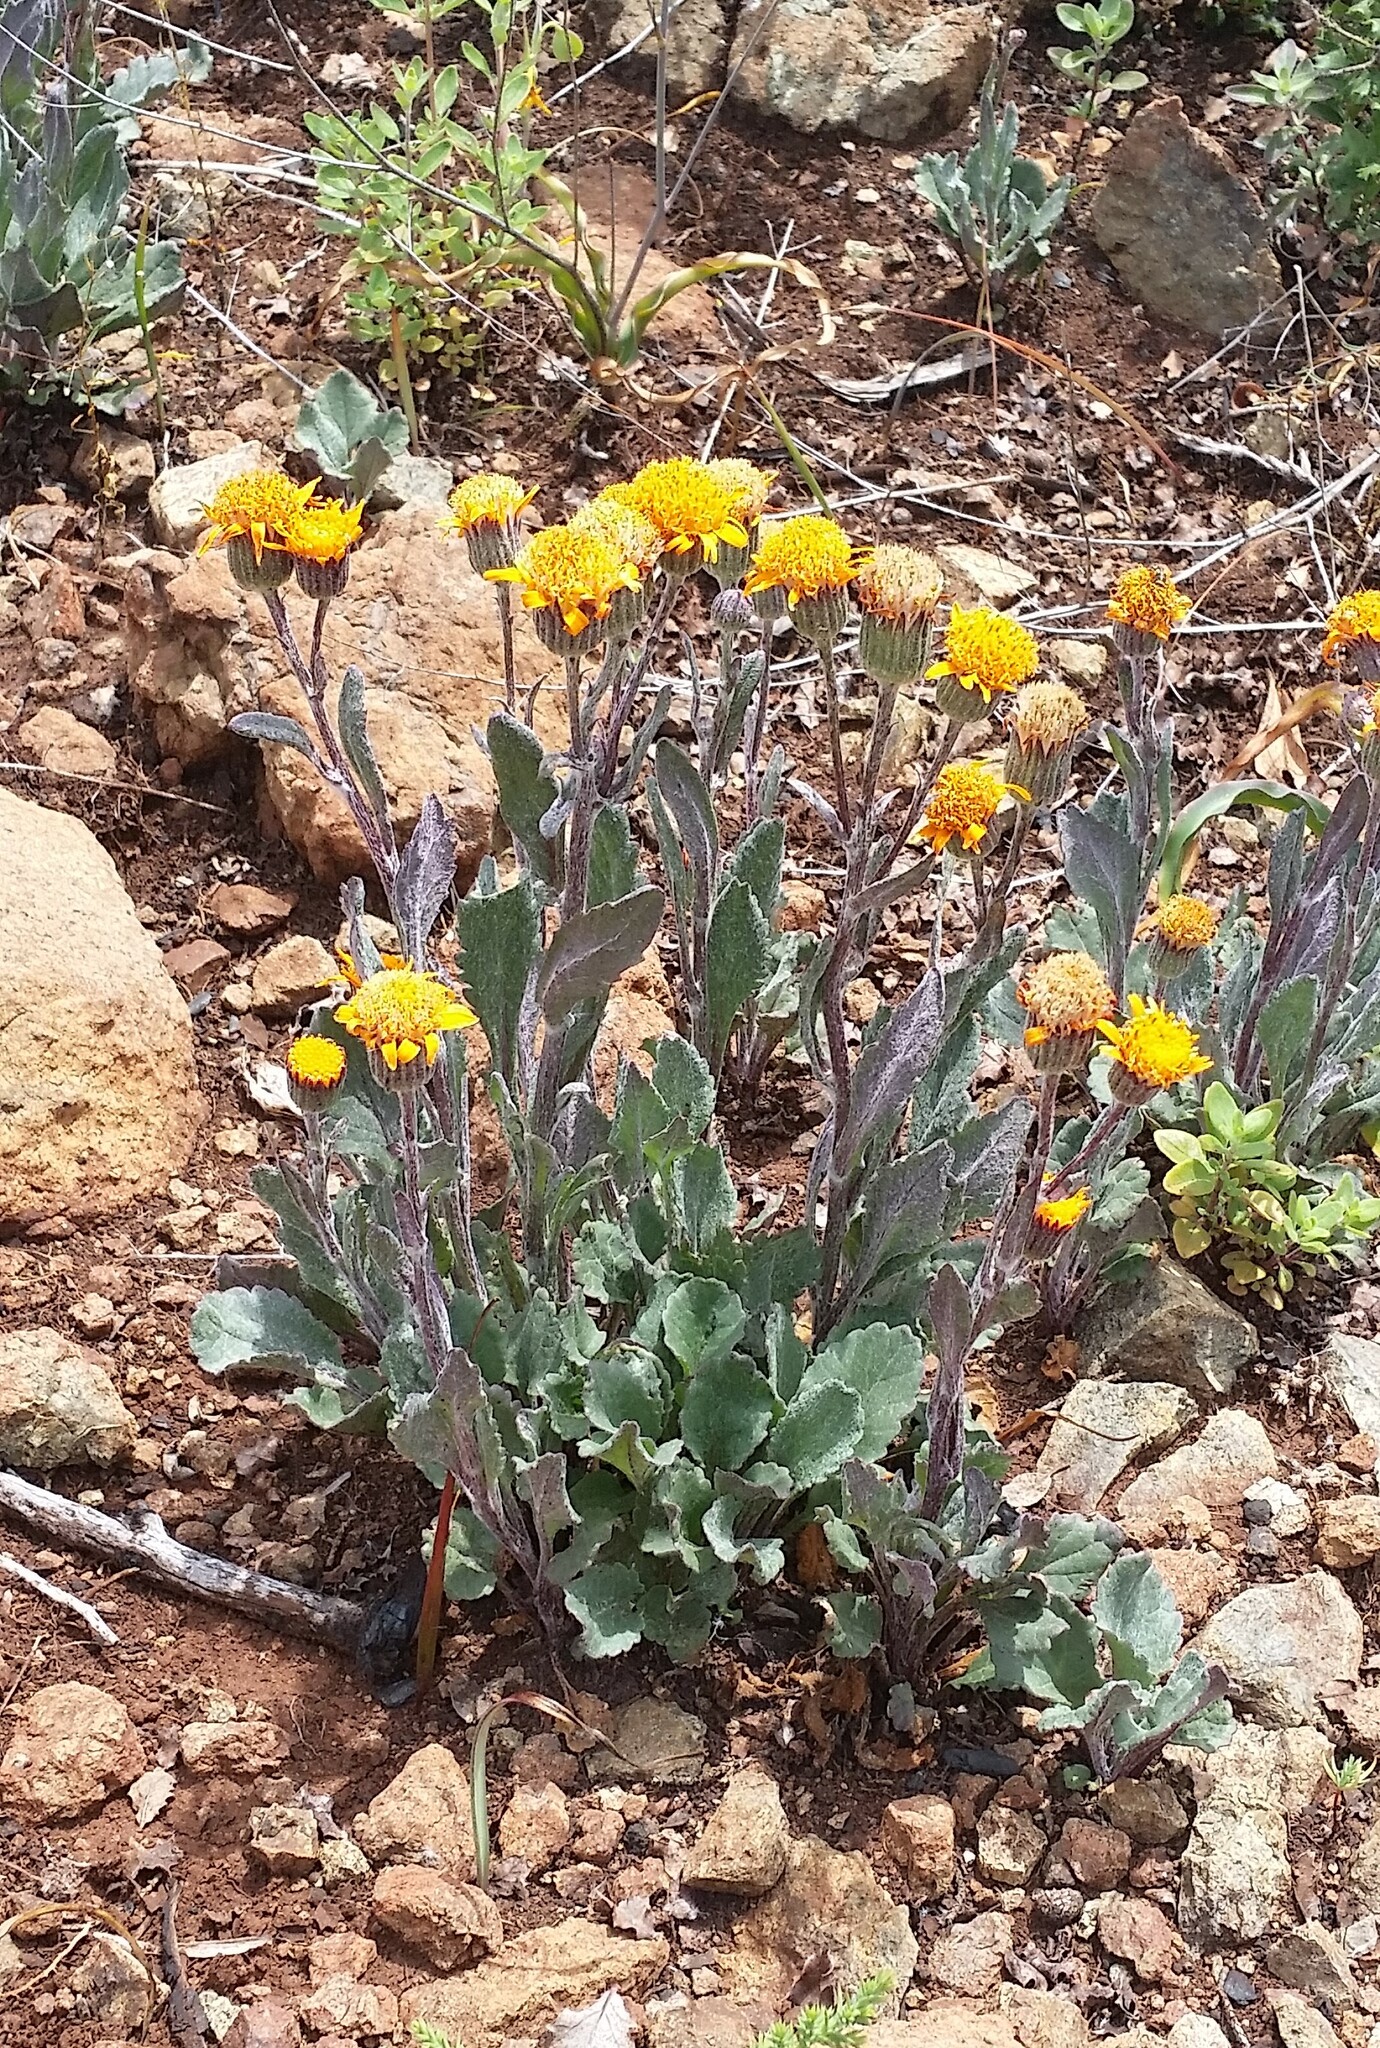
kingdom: Plantae
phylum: Tracheophyta
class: Magnoliopsida
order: Asterales
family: Asteraceae
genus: Packera
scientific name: Packera greenei
